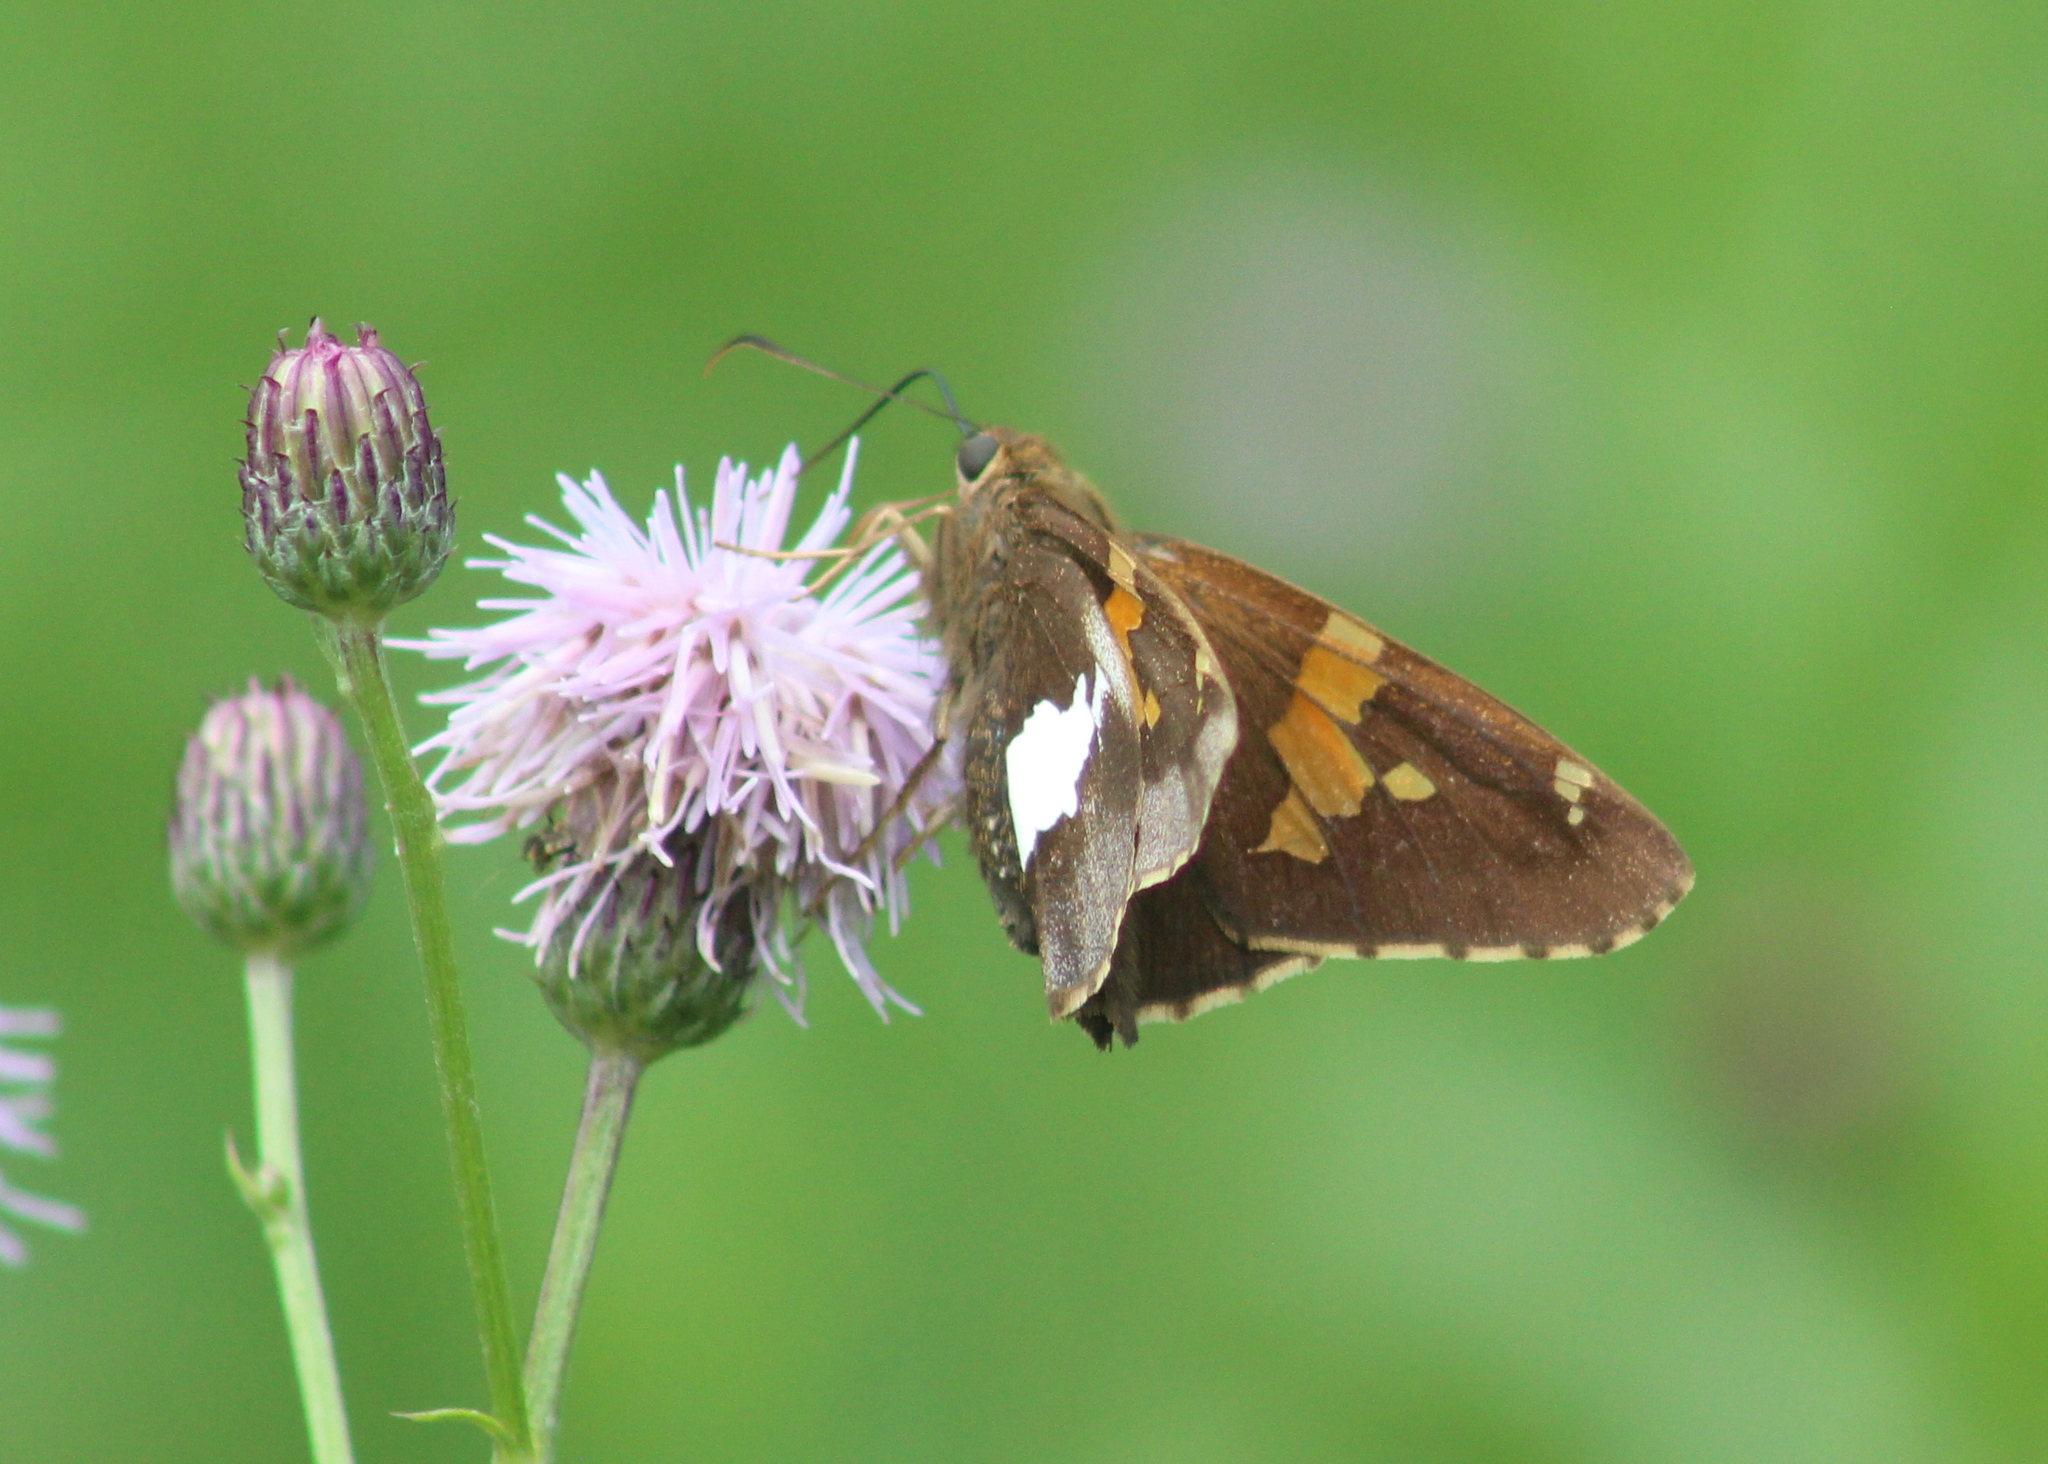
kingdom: Animalia
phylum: Arthropoda
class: Insecta
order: Lepidoptera
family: Hesperiidae
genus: Epargyreus
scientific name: Epargyreus clarus
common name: Silver-spotted skipper
